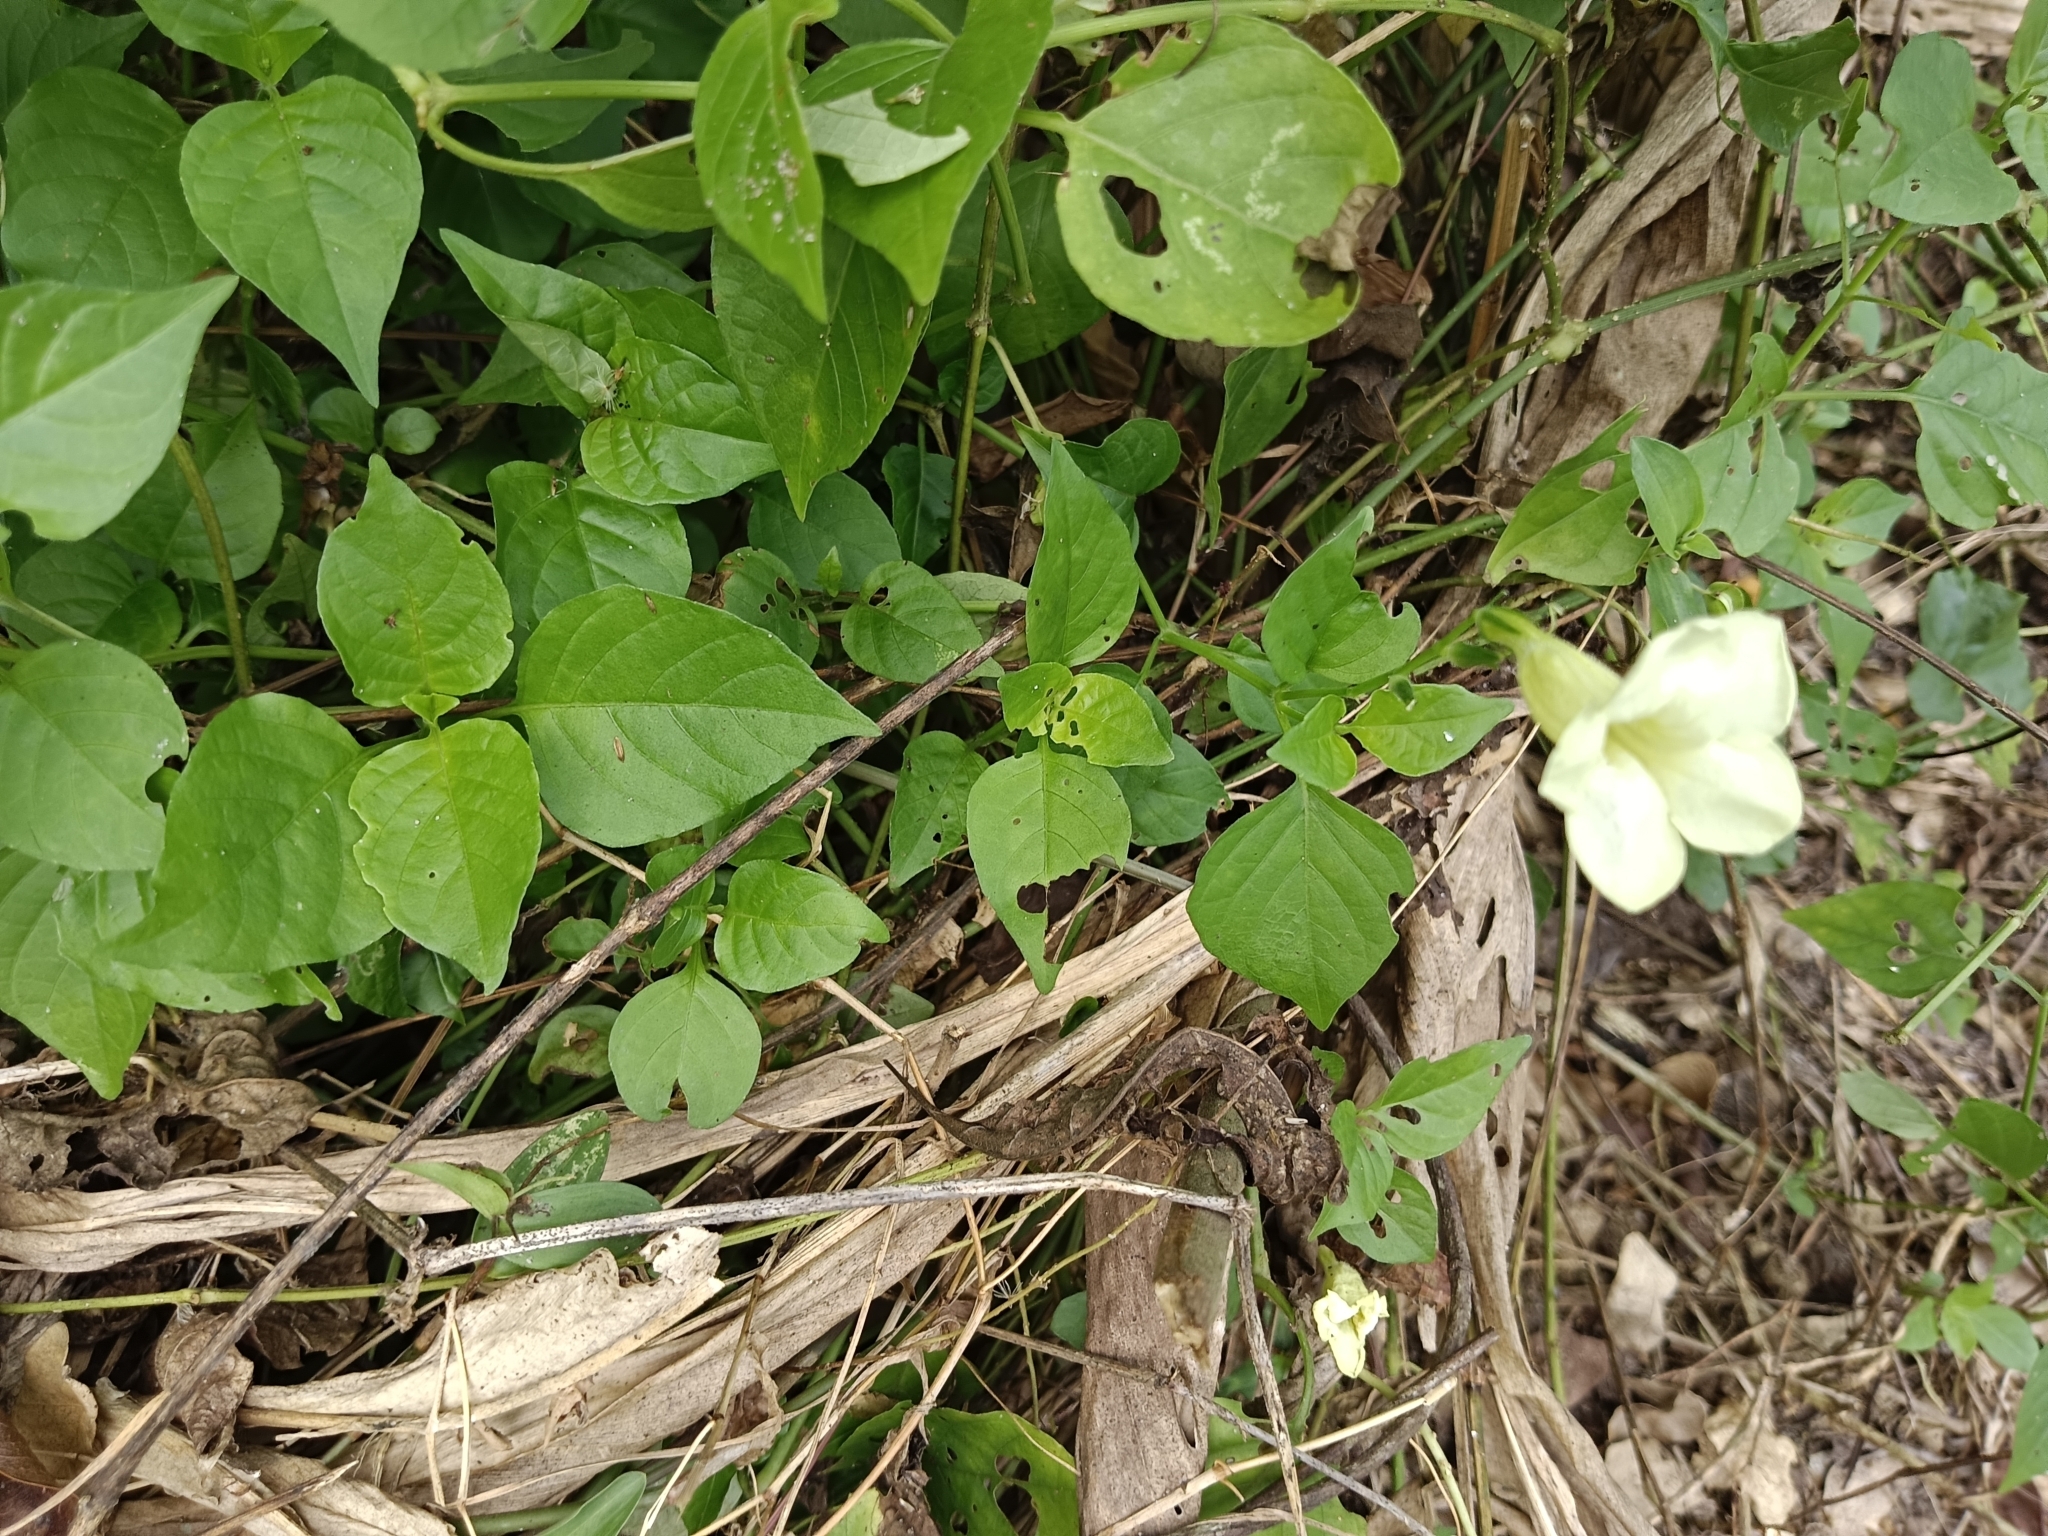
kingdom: Plantae
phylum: Tracheophyta
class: Magnoliopsida
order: Lamiales
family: Acanthaceae
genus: Asystasia
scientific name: Asystasia gangetica
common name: Chinese violet
